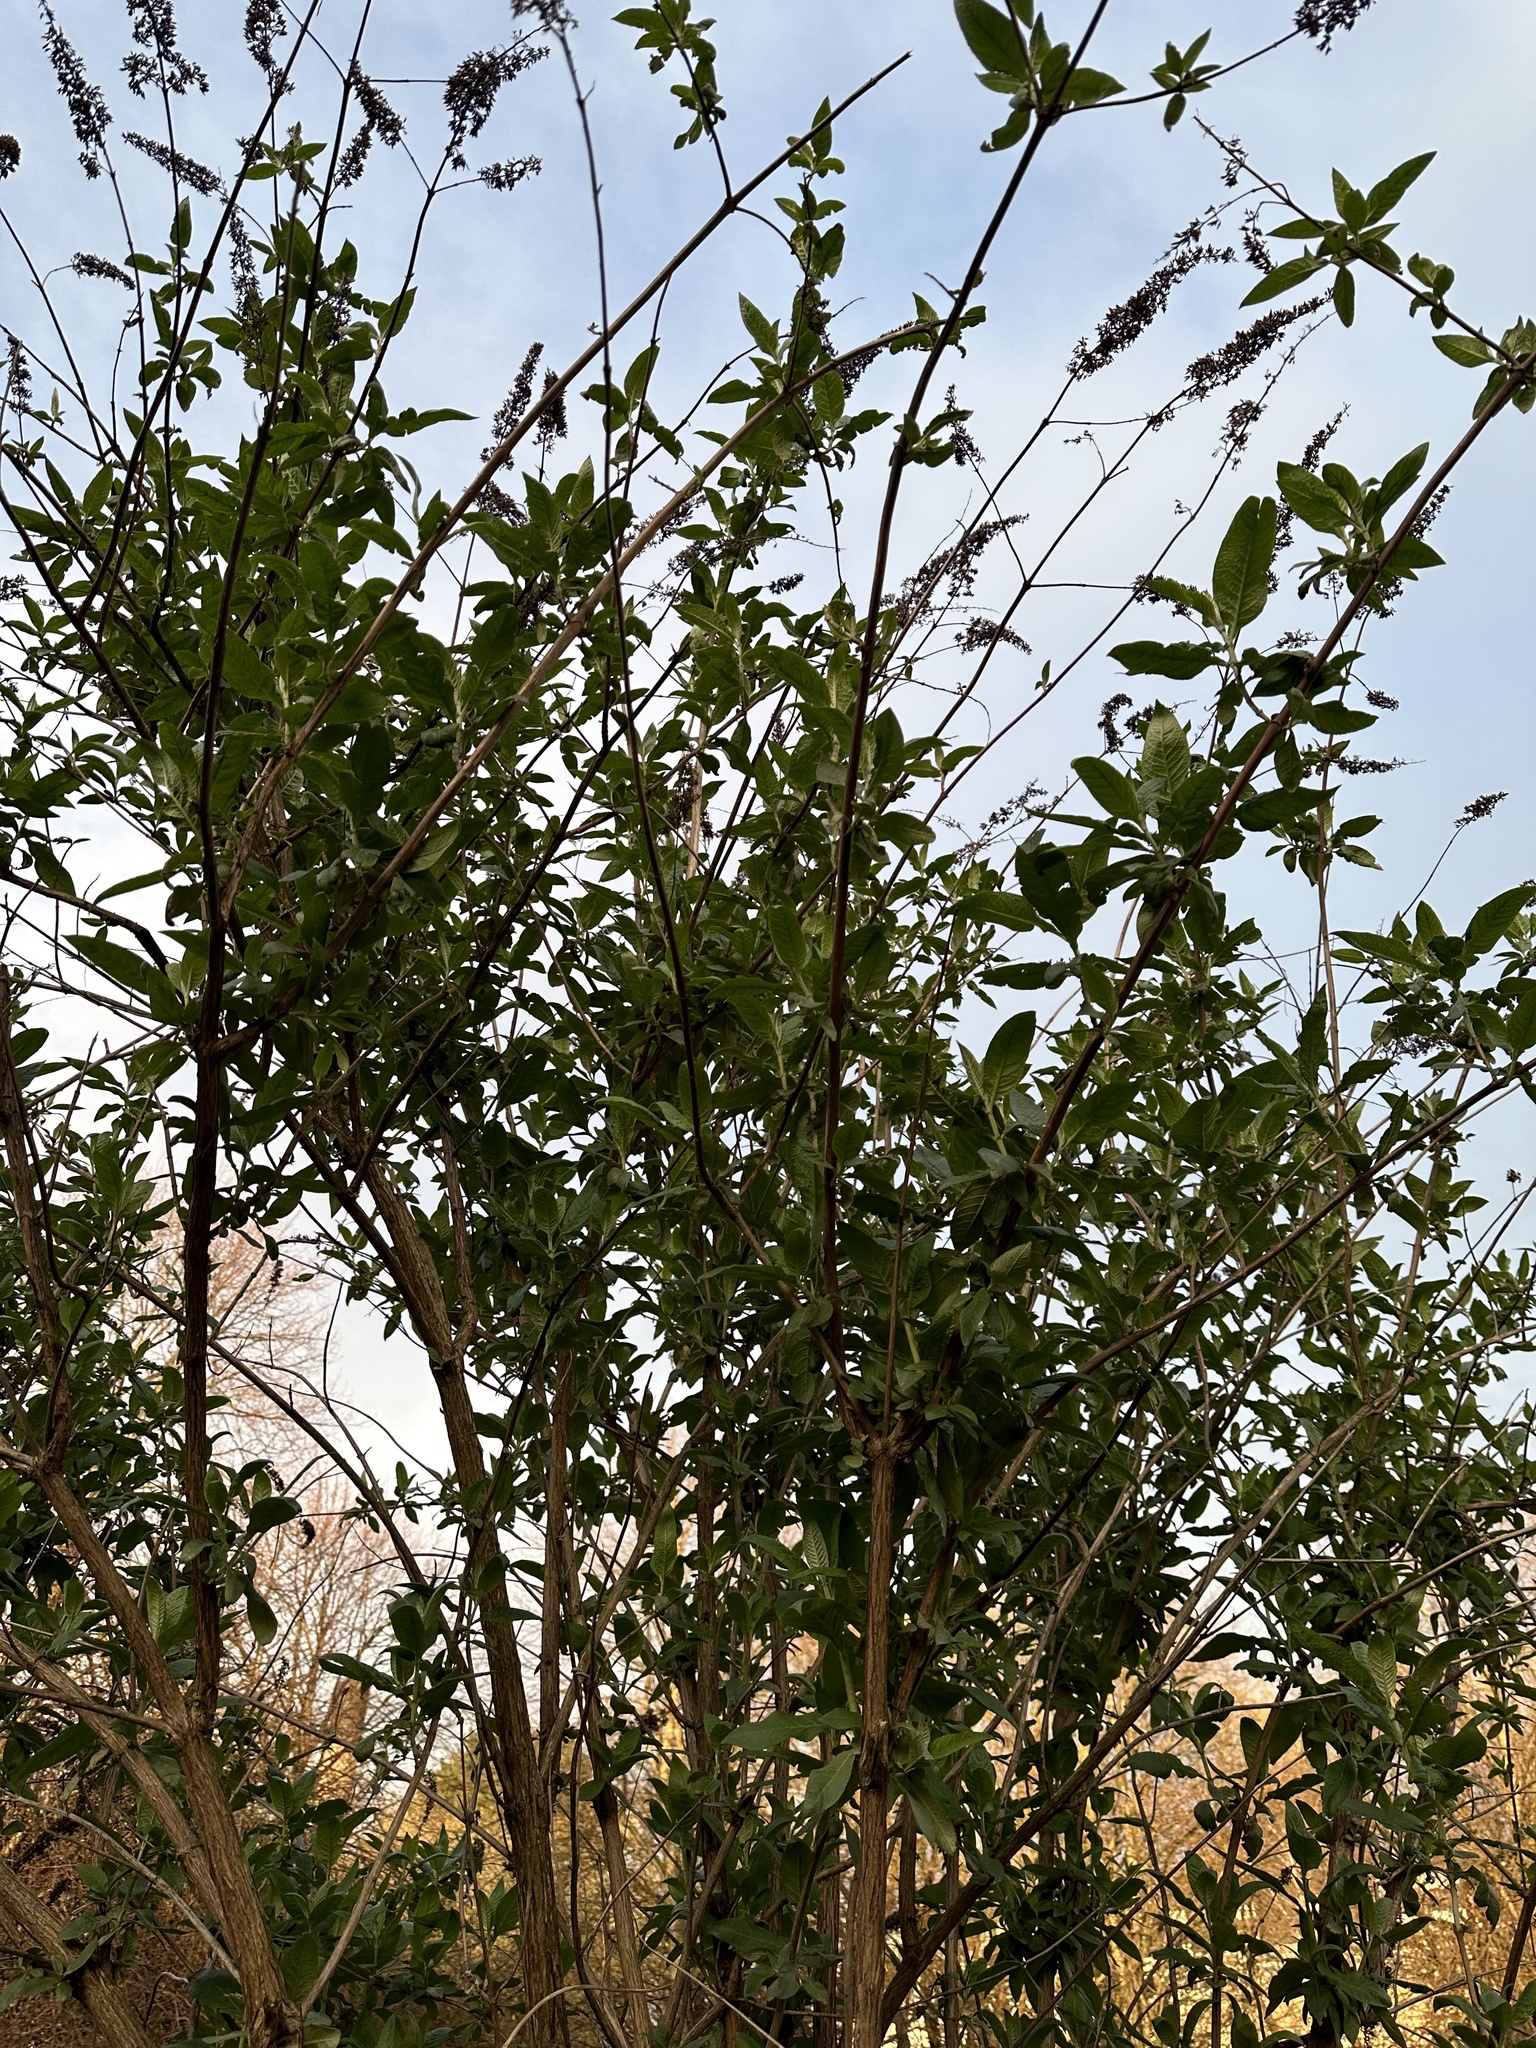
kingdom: Plantae
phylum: Tracheophyta
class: Magnoliopsida
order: Lamiales
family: Scrophulariaceae
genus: Buddleja
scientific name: Buddleja davidii
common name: Butterfly-bush
